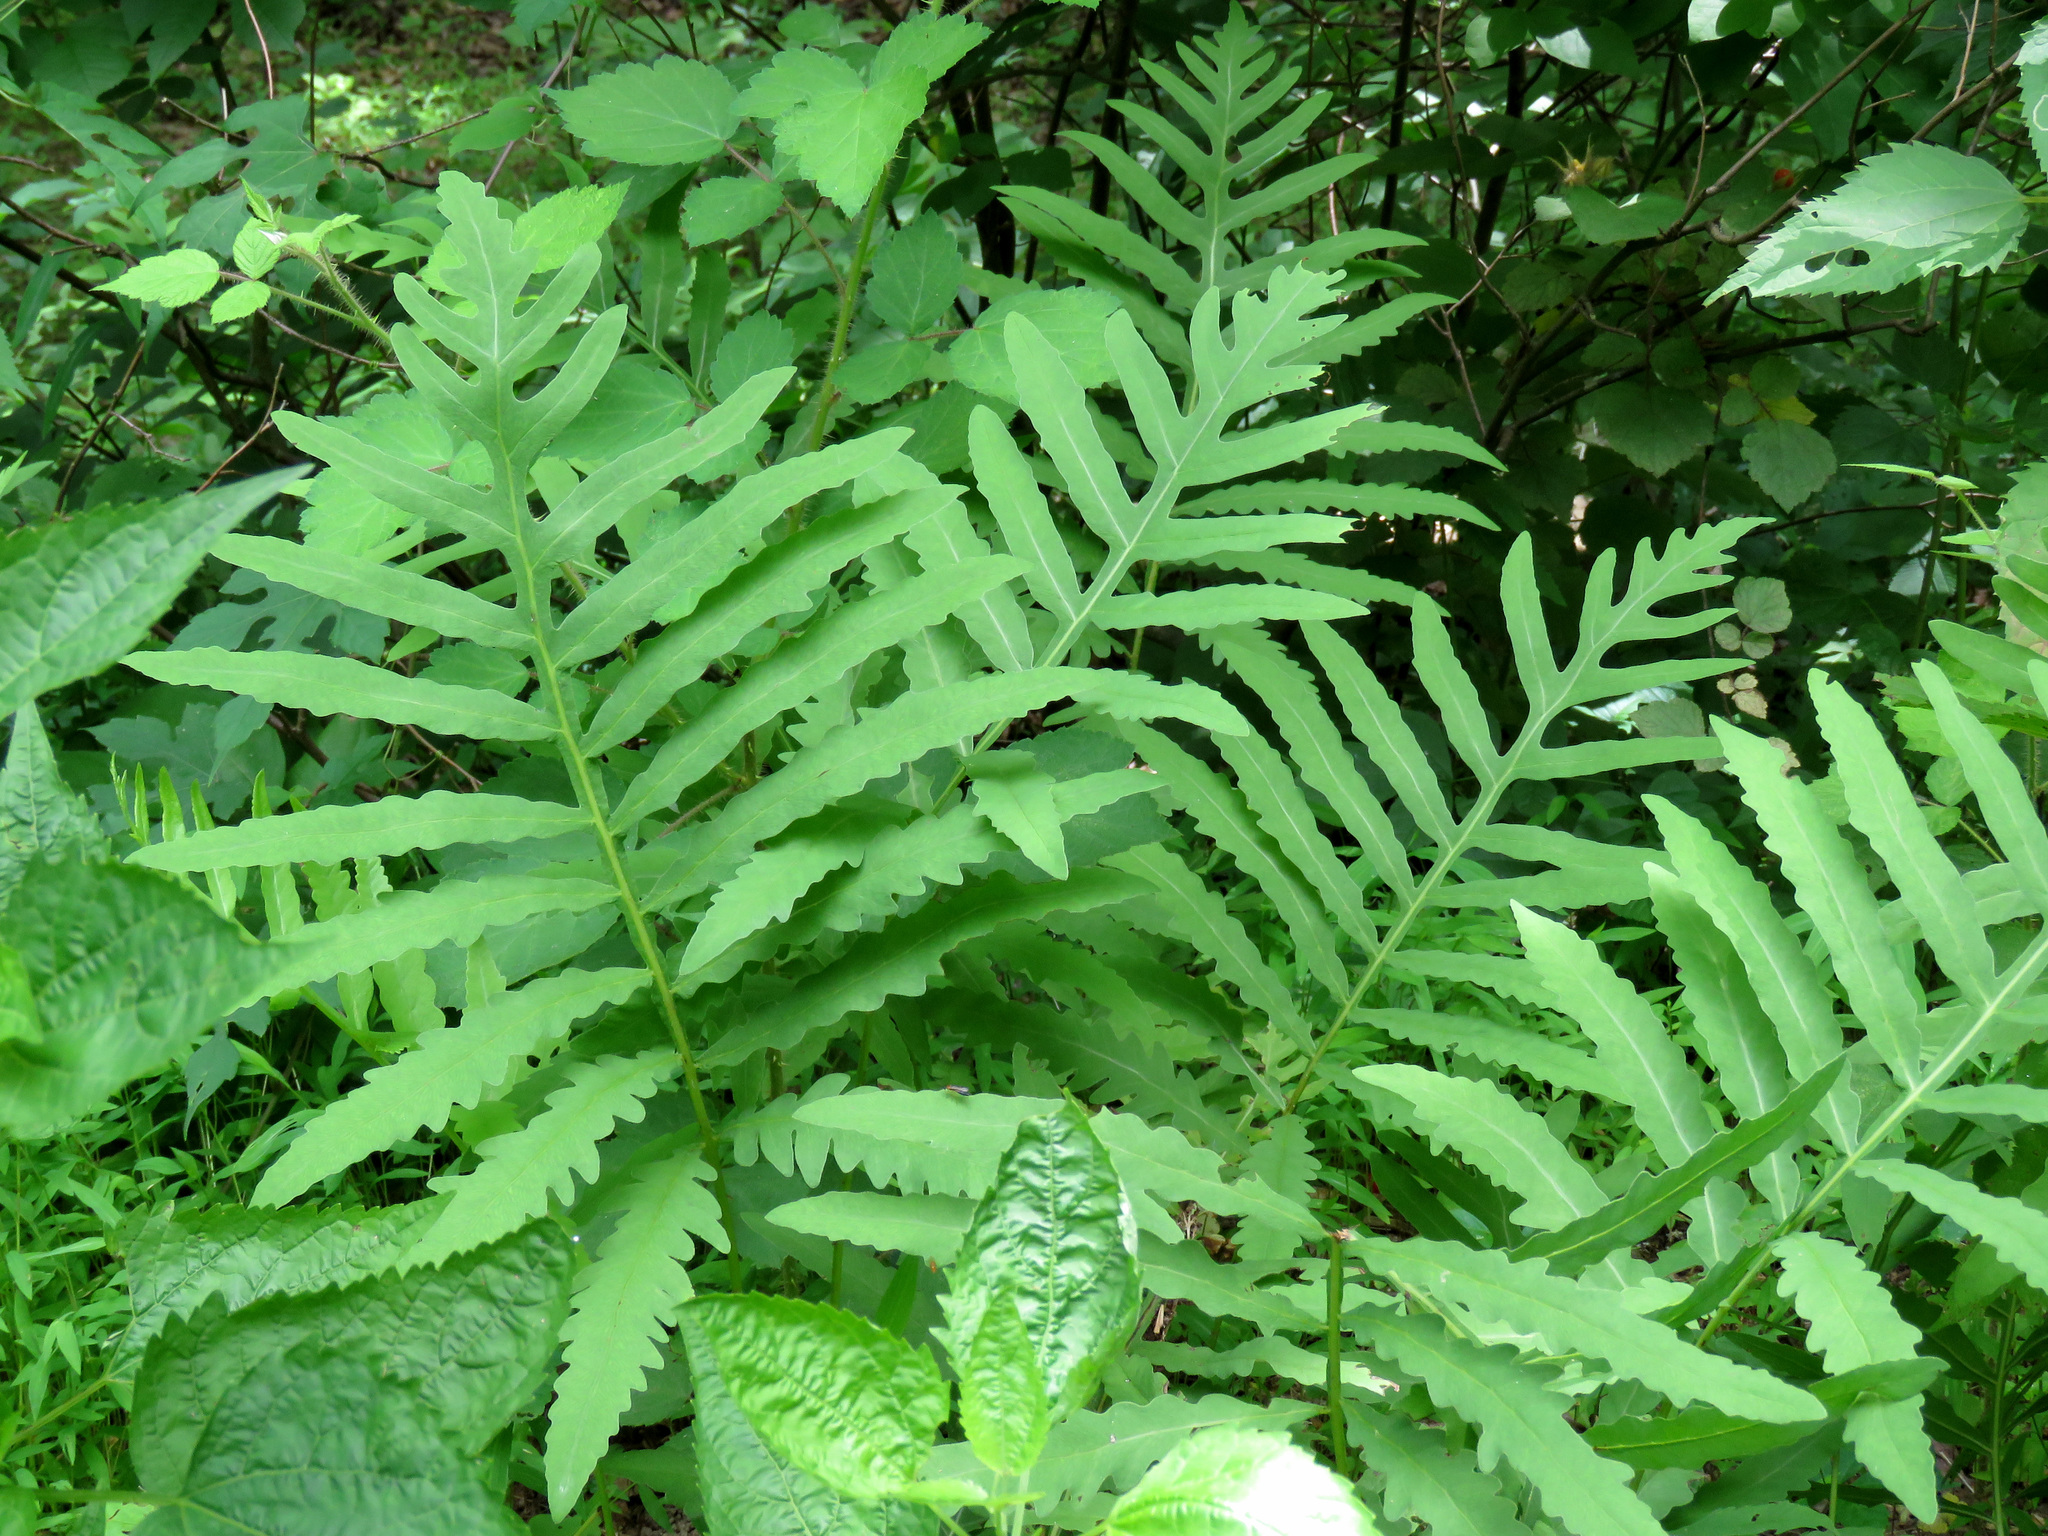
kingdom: Plantae
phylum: Tracheophyta
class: Polypodiopsida
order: Polypodiales
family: Onocleaceae
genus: Onoclea
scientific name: Onoclea sensibilis
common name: Sensitive fern
